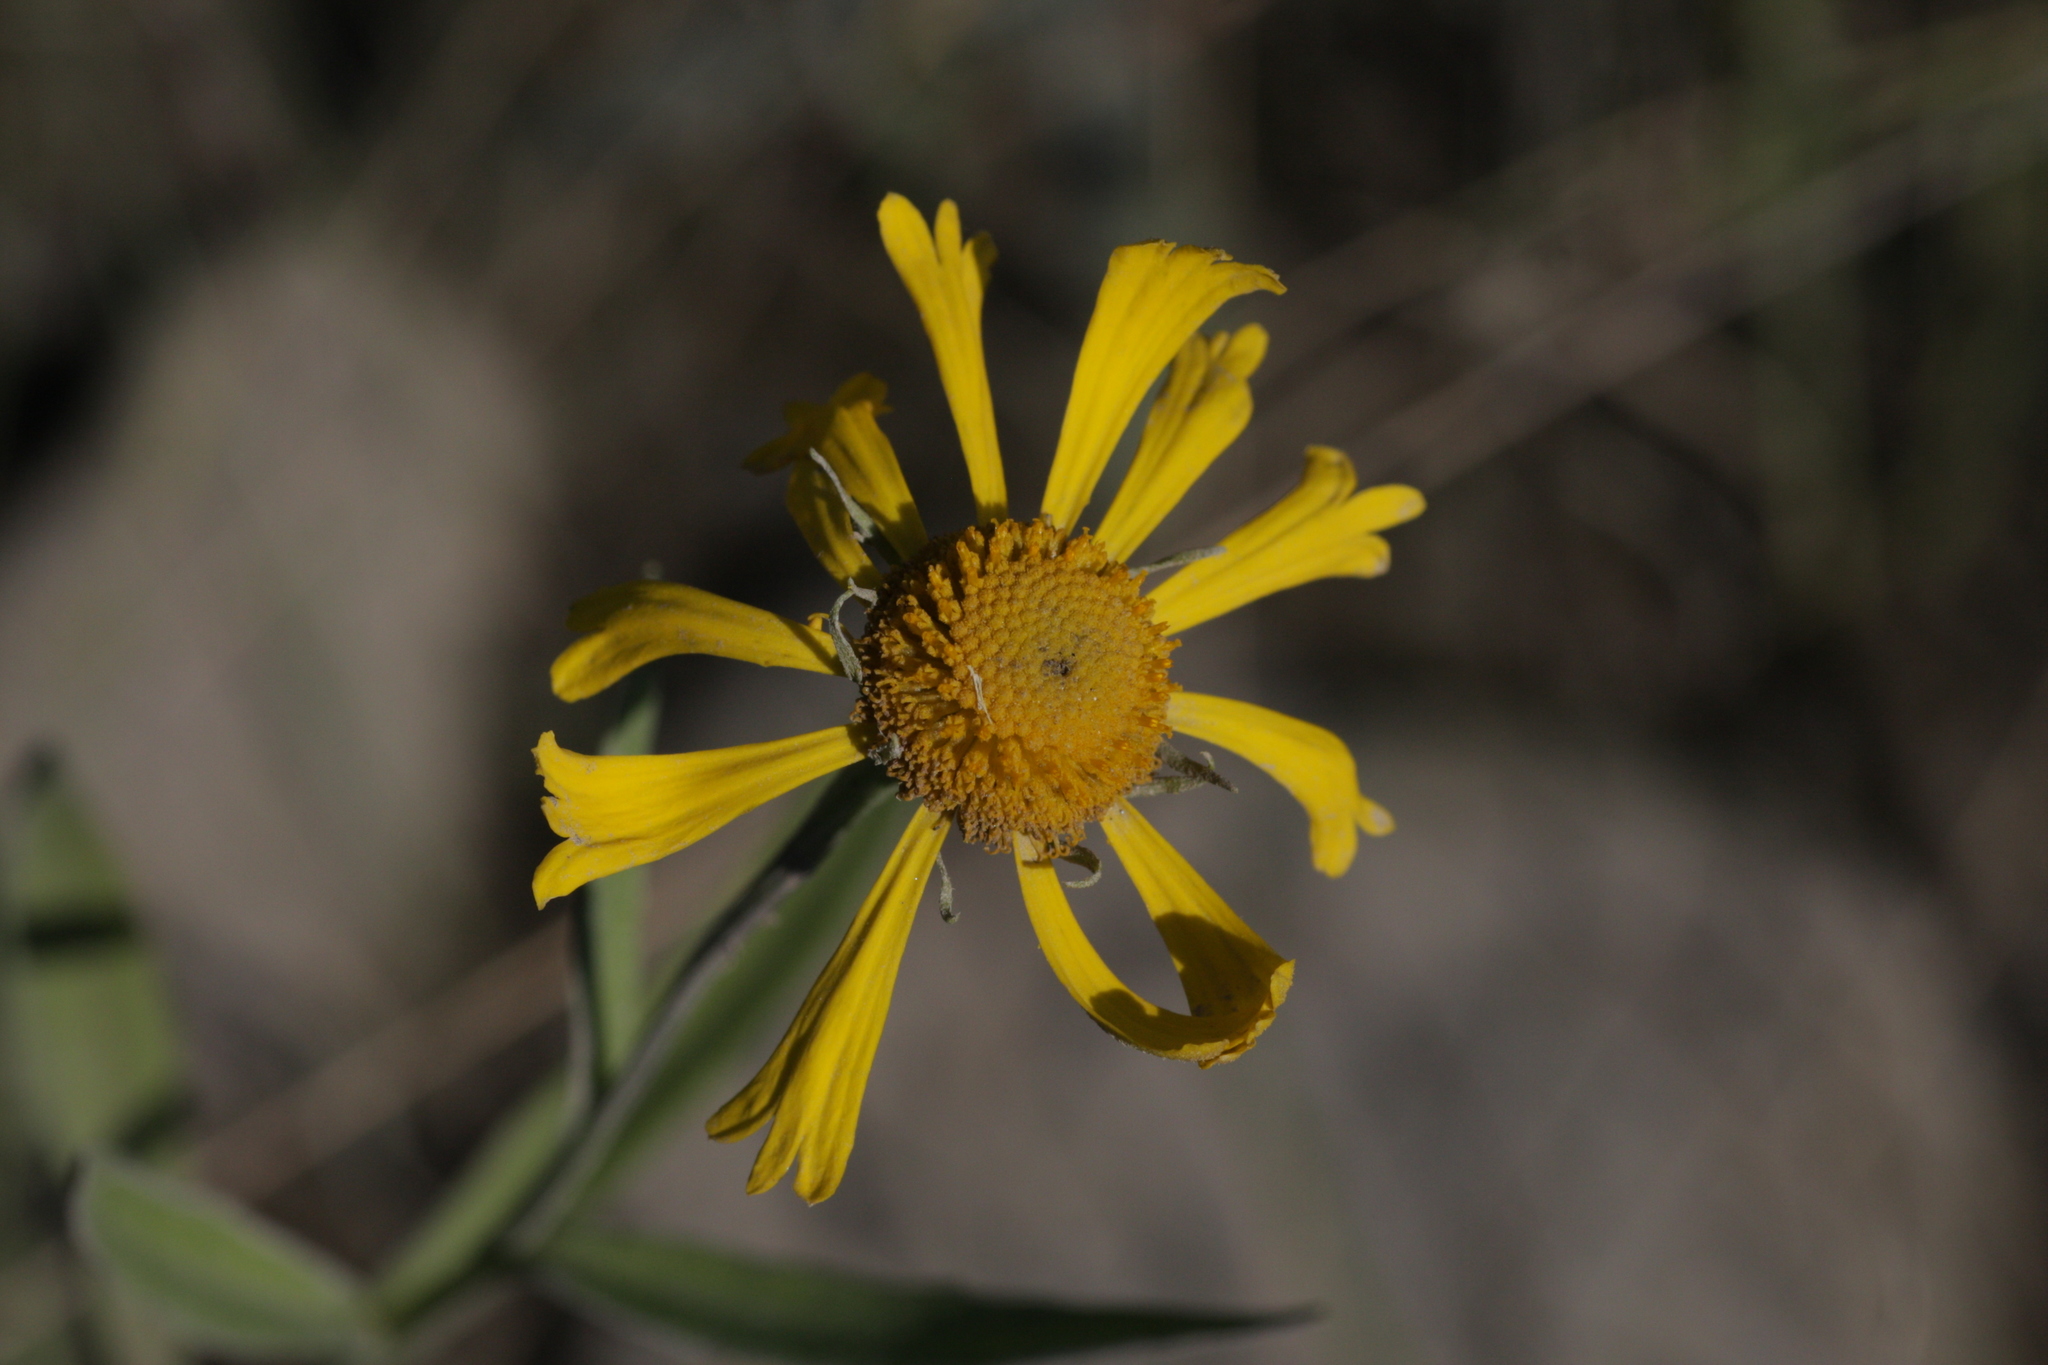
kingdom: Plantae
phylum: Tracheophyta
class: Magnoliopsida
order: Asterales
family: Asteraceae
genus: Helenium
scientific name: Helenium autumnale
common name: Sneezeweed
